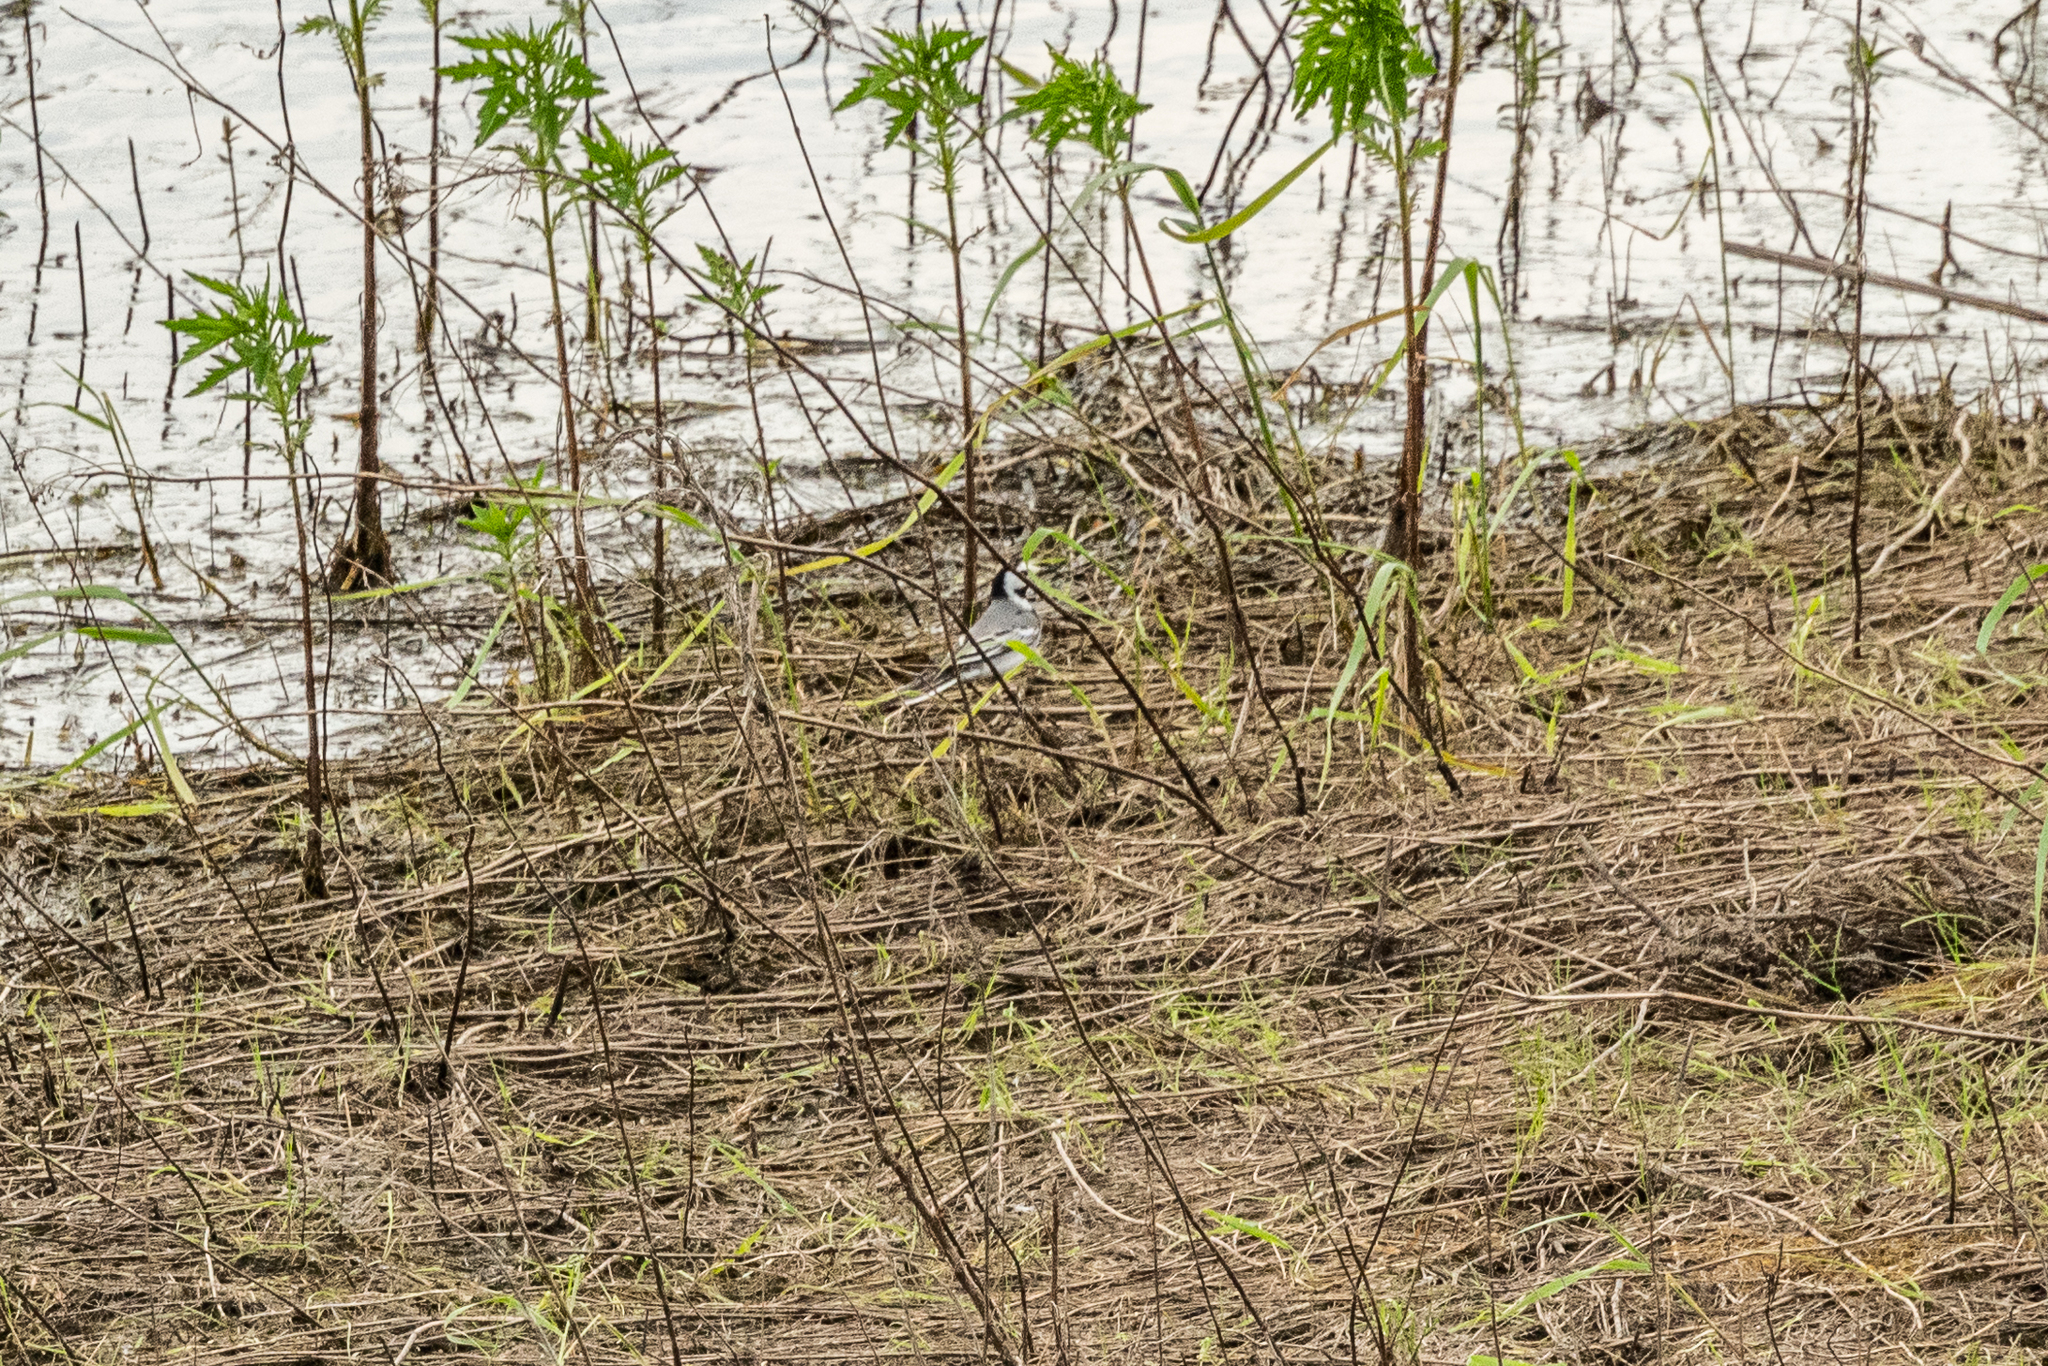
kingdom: Animalia
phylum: Chordata
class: Aves
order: Passeriformes
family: Motacillidae
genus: Motacilla
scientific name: Motacilla alba
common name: White wagtail
